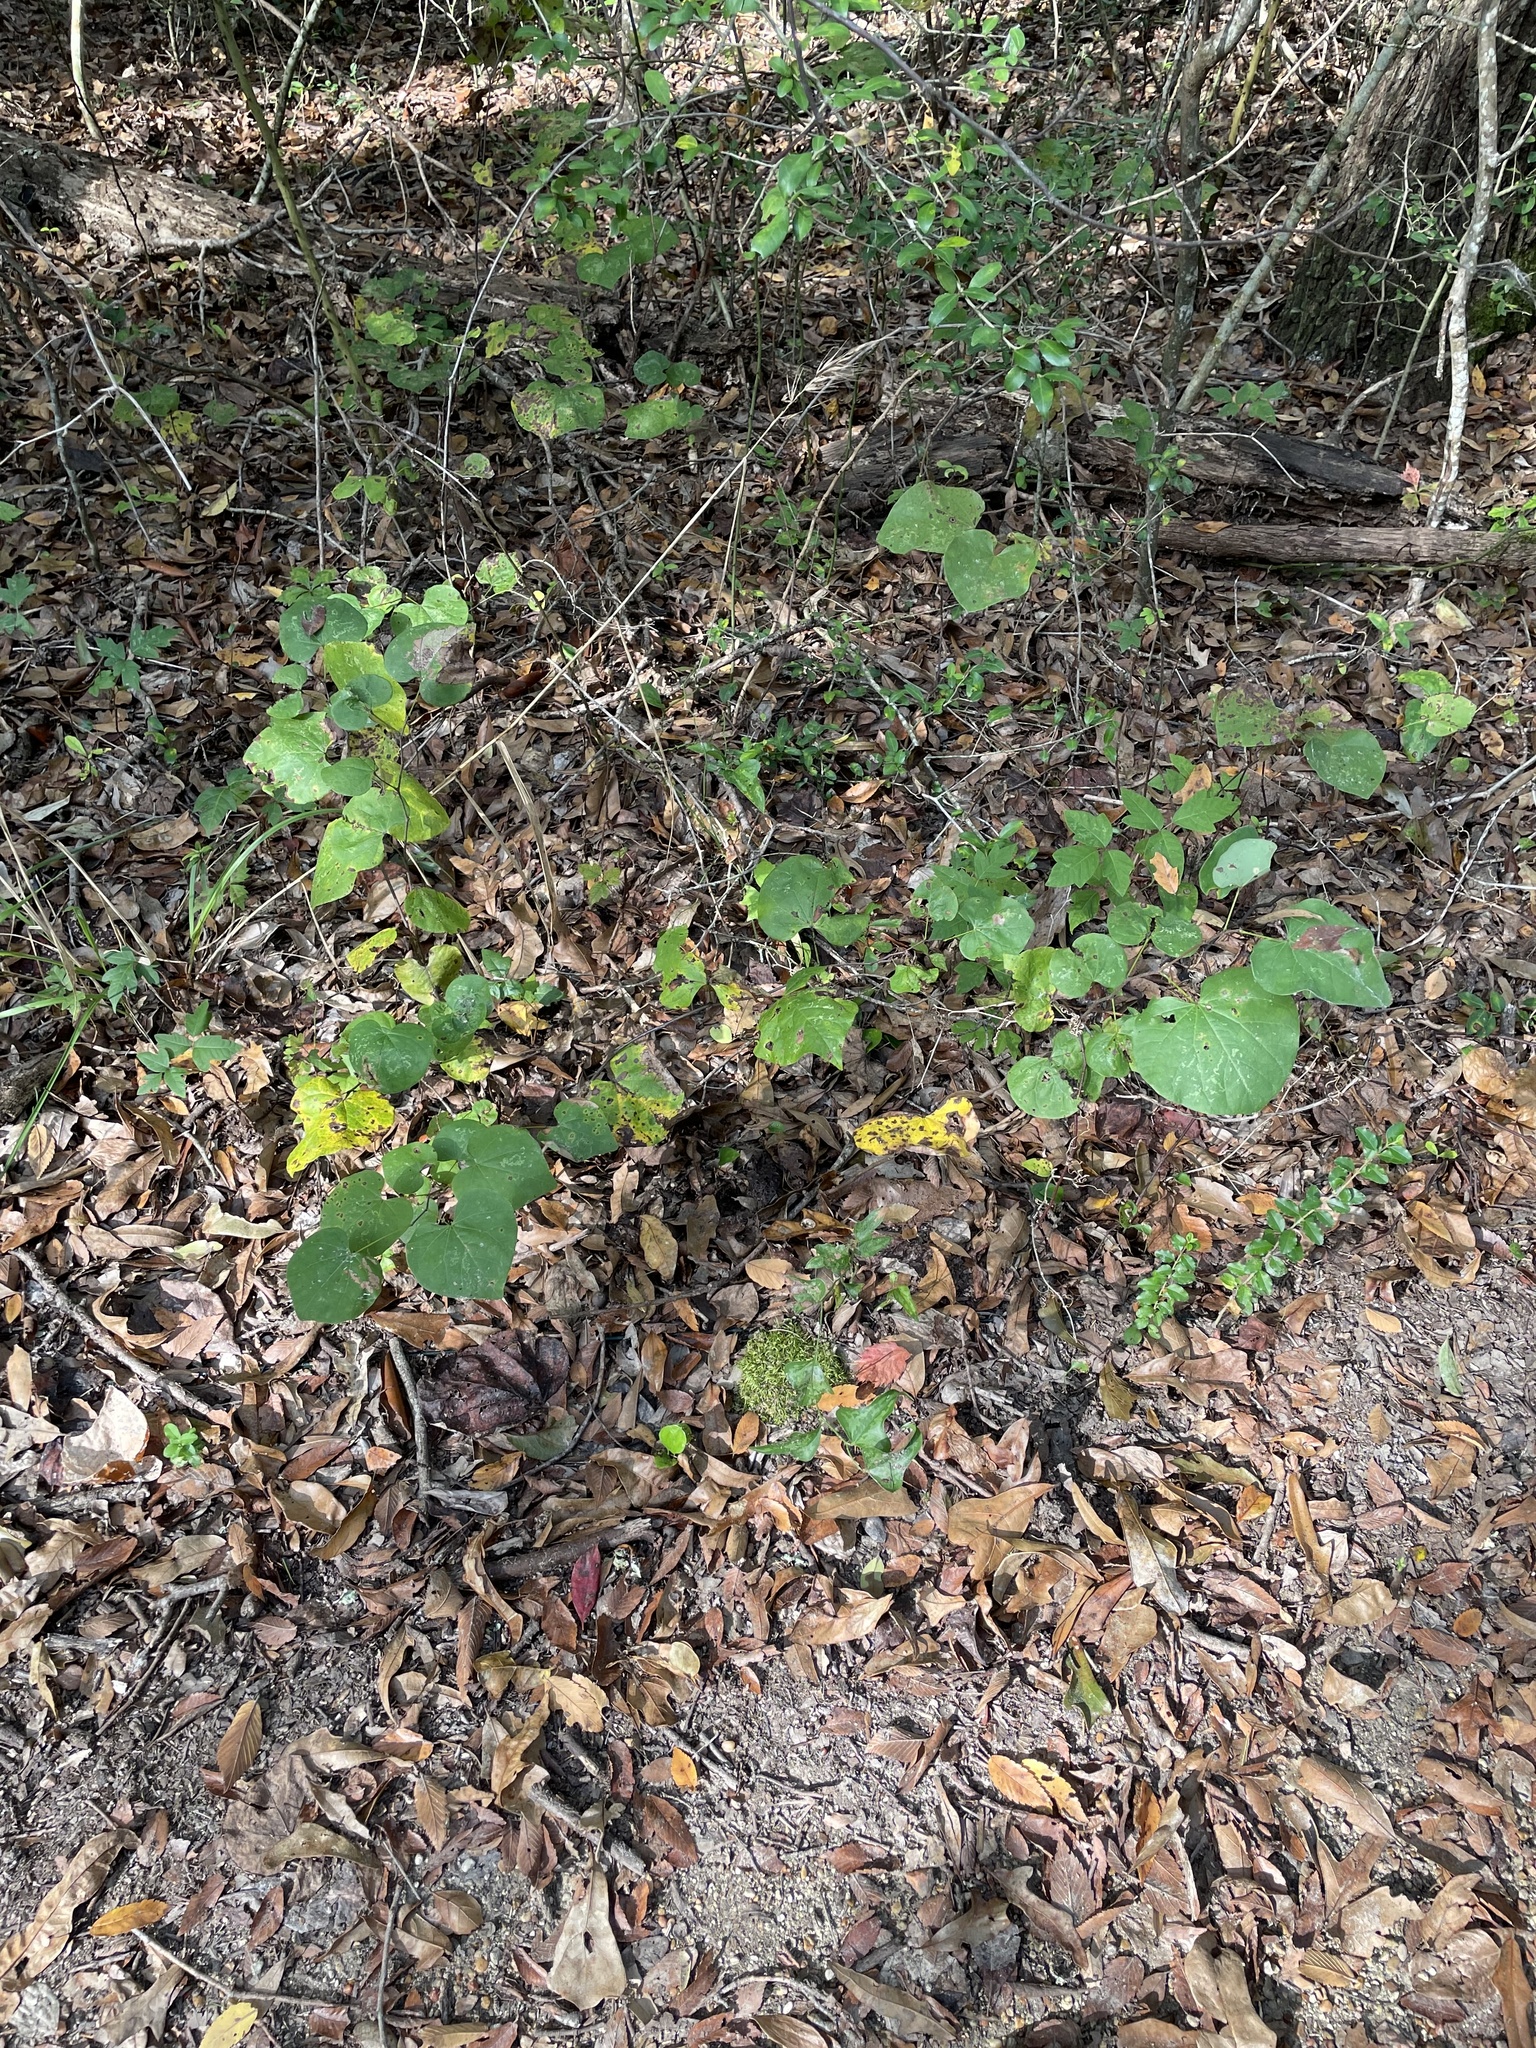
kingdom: Plantae
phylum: Tracheophyta
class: Magnoliopsida
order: Fabales
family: Fabaceae
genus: Cercis
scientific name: Cercis canadensis
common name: Eastern redbud
